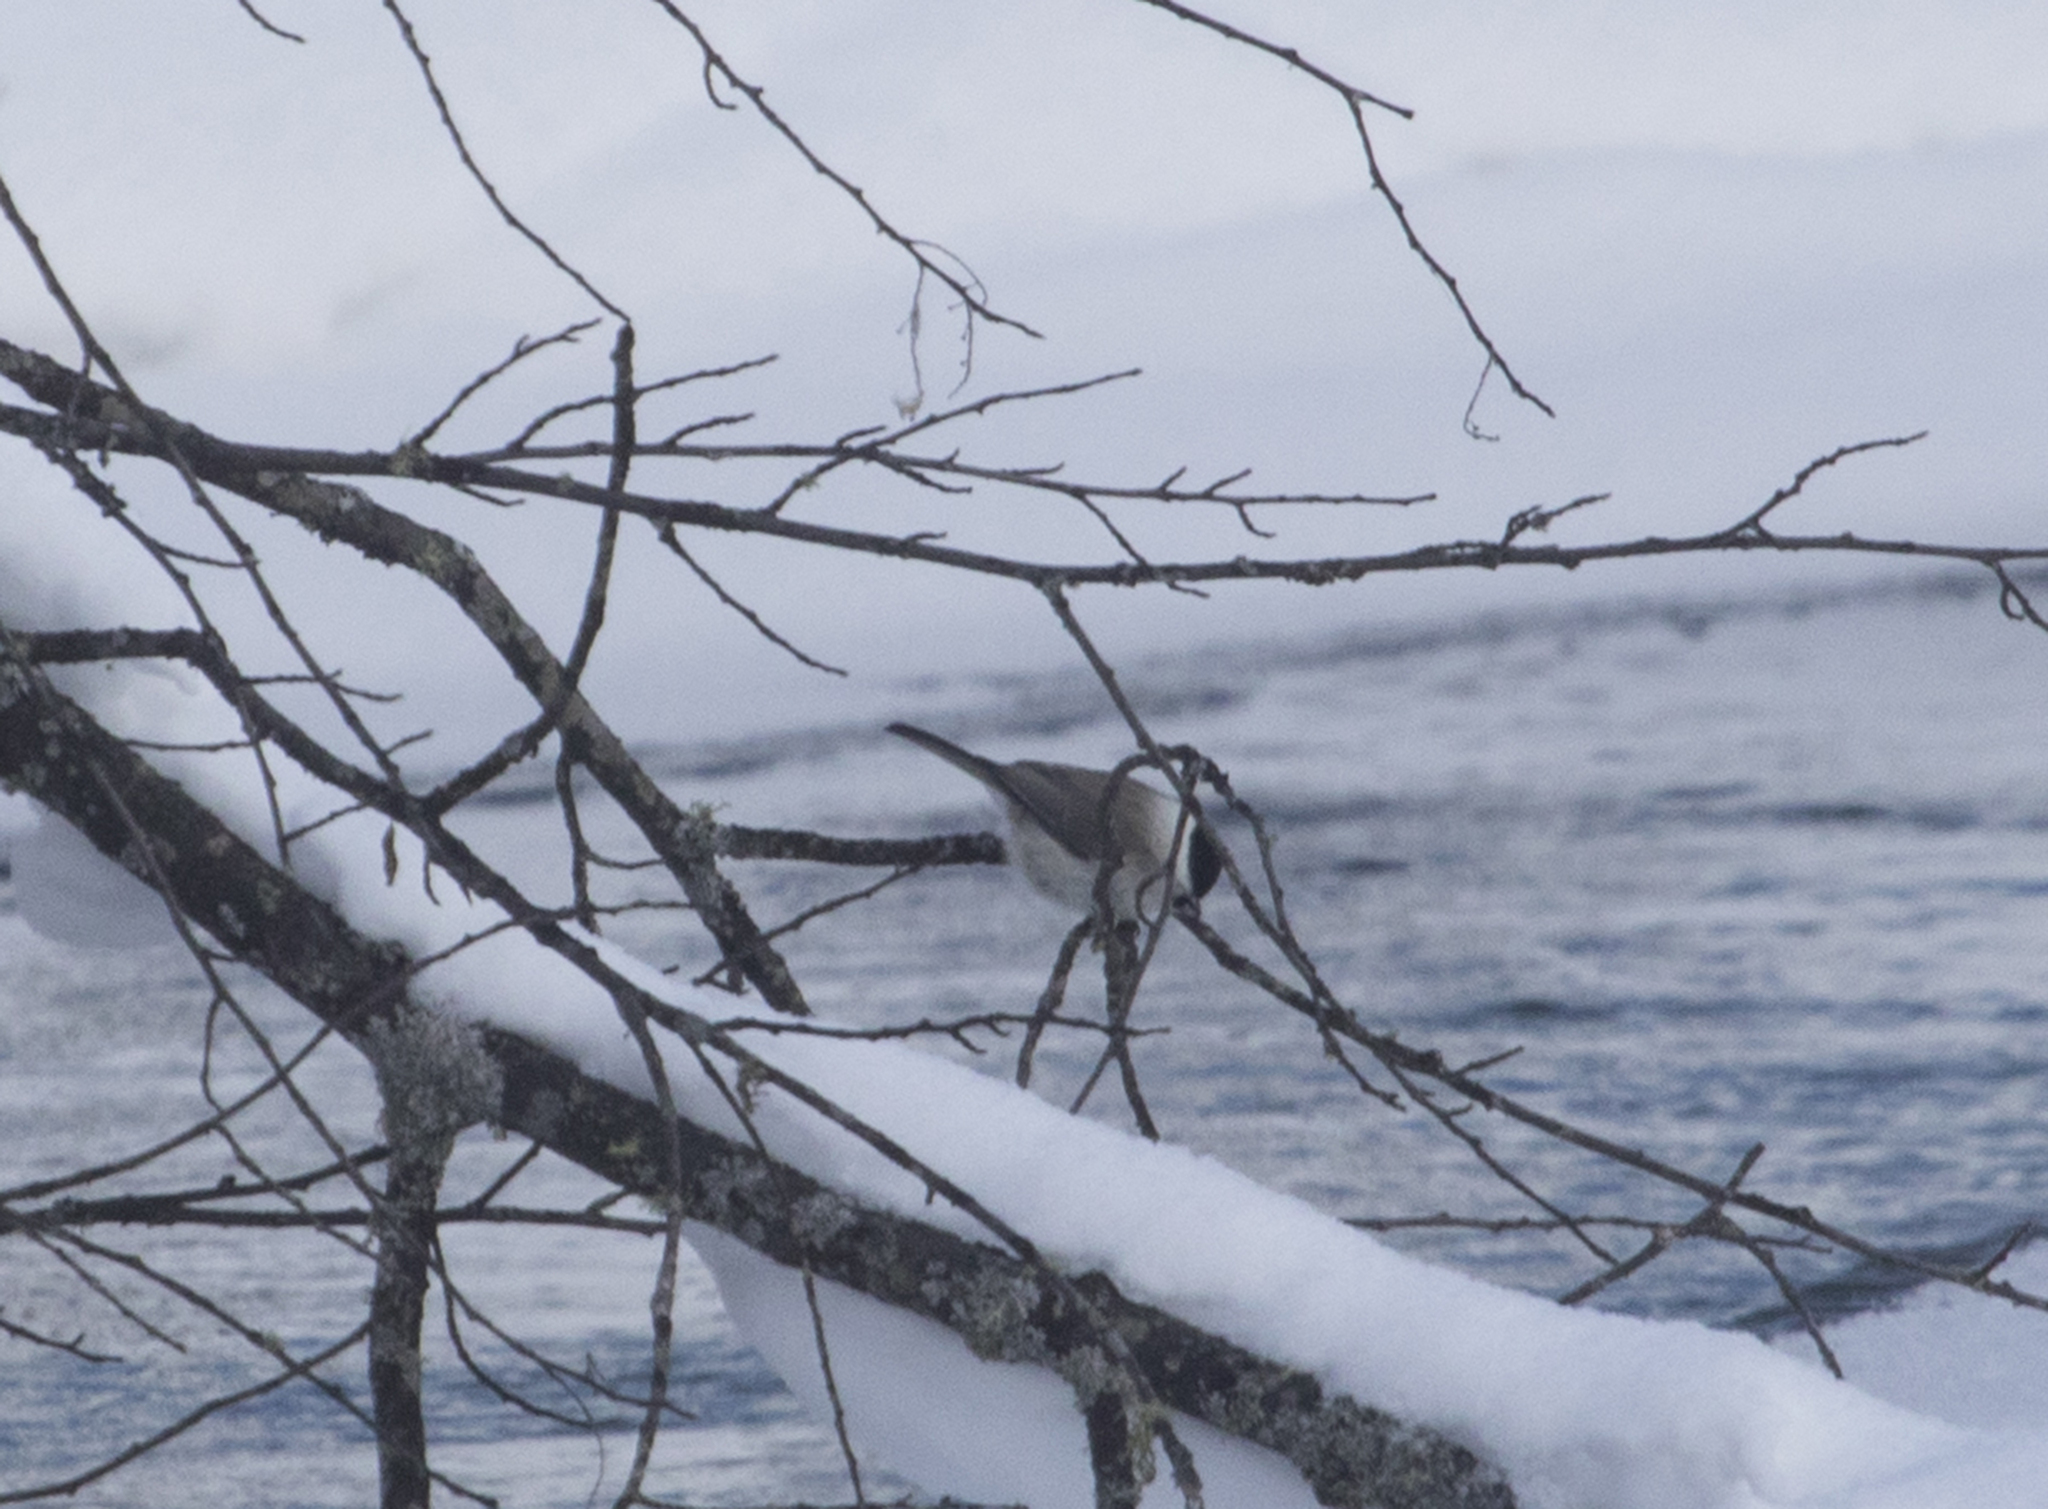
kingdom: Animalia
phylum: Chordata
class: Aves
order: Passeriformes
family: Paridae
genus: Poecile
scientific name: Poecile palustris
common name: Marsh tit
